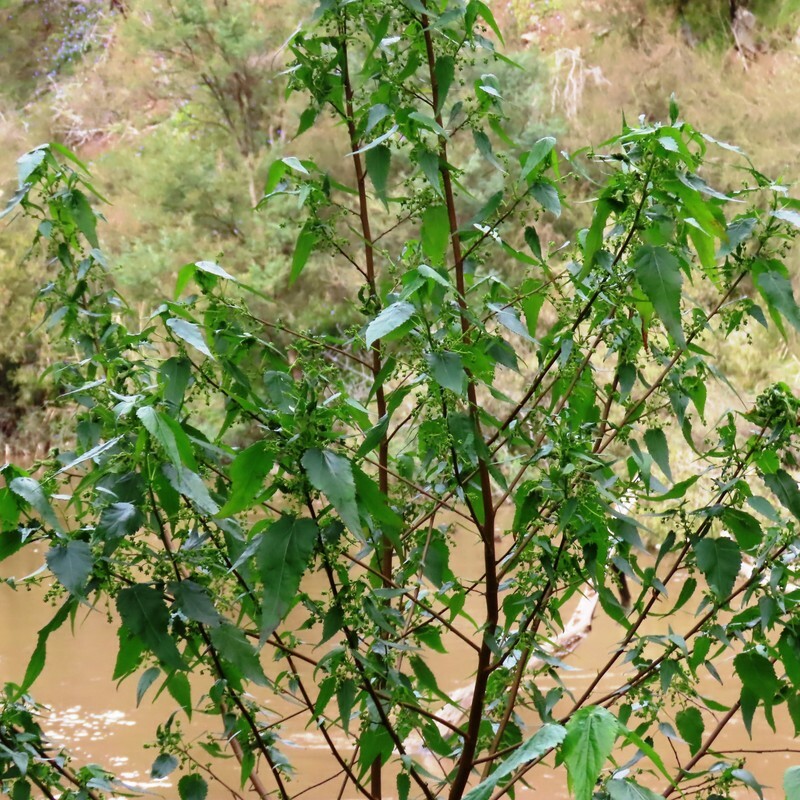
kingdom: Plantae
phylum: Tracheophyta
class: Magnoliopsida
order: Malvales
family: Malvaceae
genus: Gynatrix
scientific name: Gynatrix pulchella
